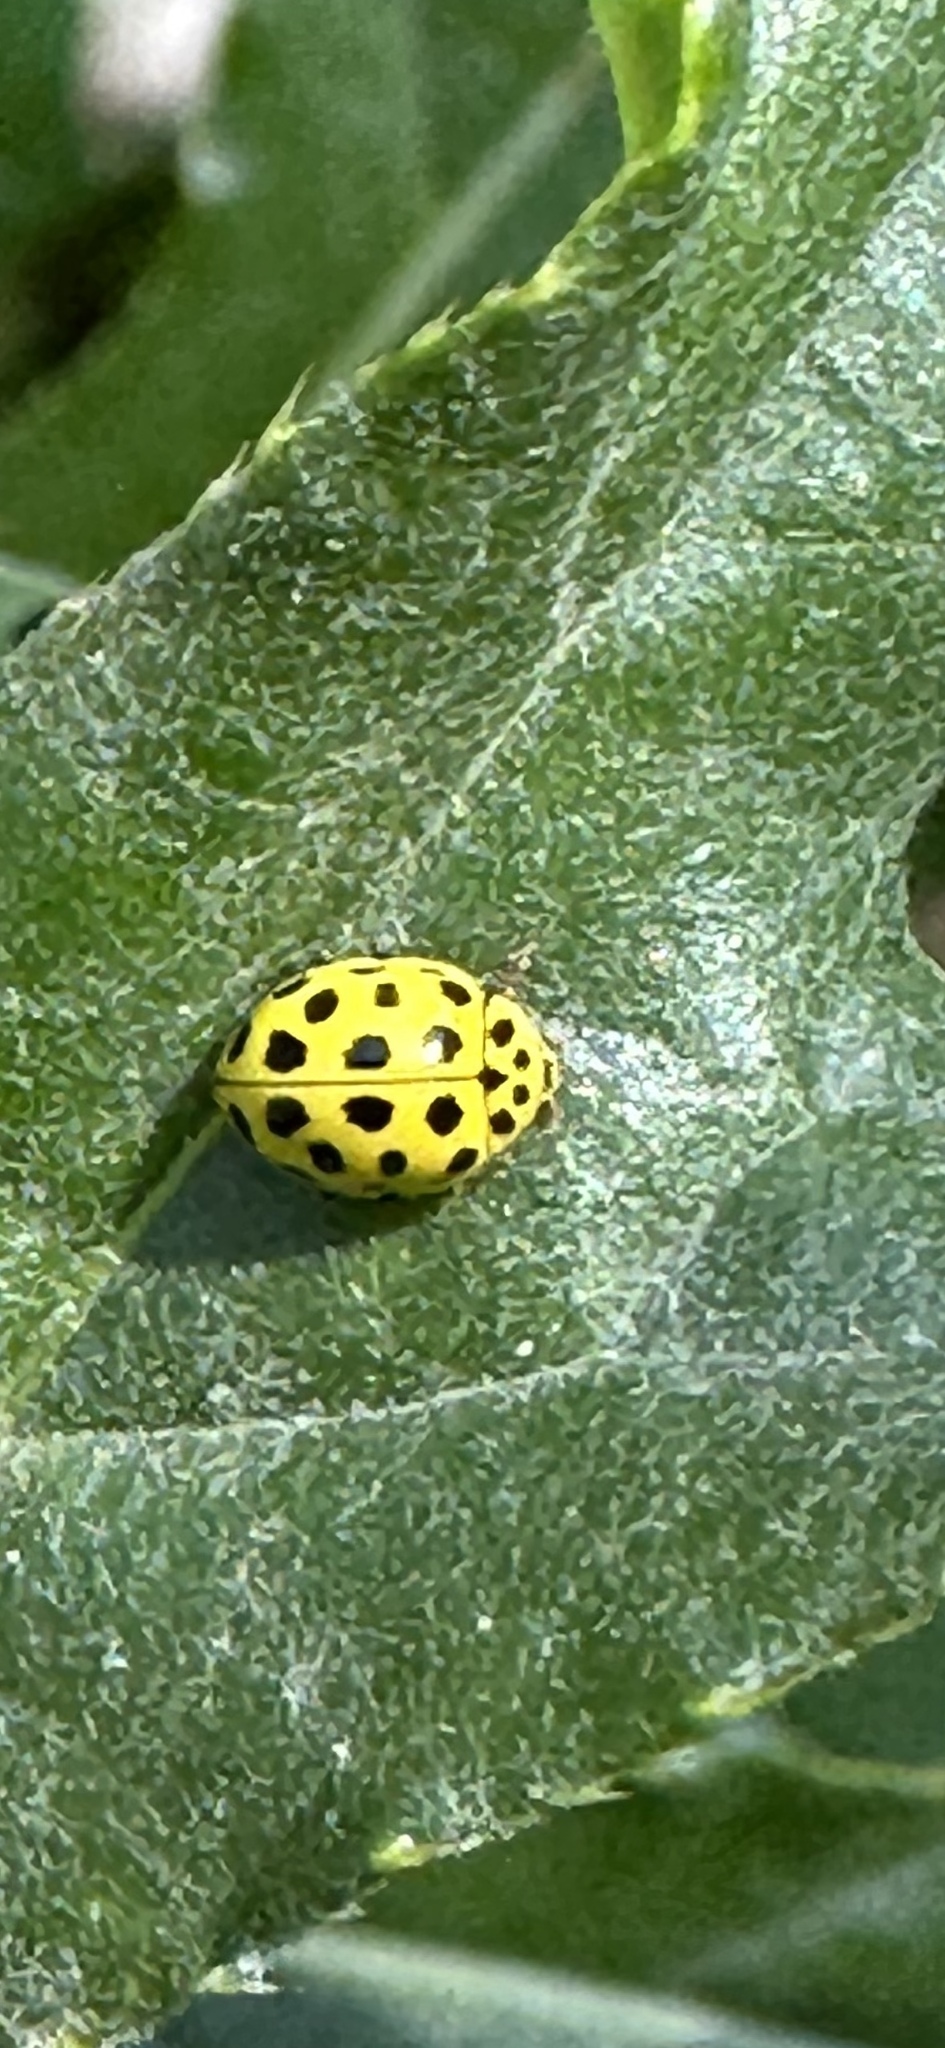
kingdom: Animalia
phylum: Arthropoda
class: Insecta
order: Coleoptera
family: Coccinellidae
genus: Psyllobora
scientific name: Psyllobora vigintiduopunctata
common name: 22-spot ladybird
